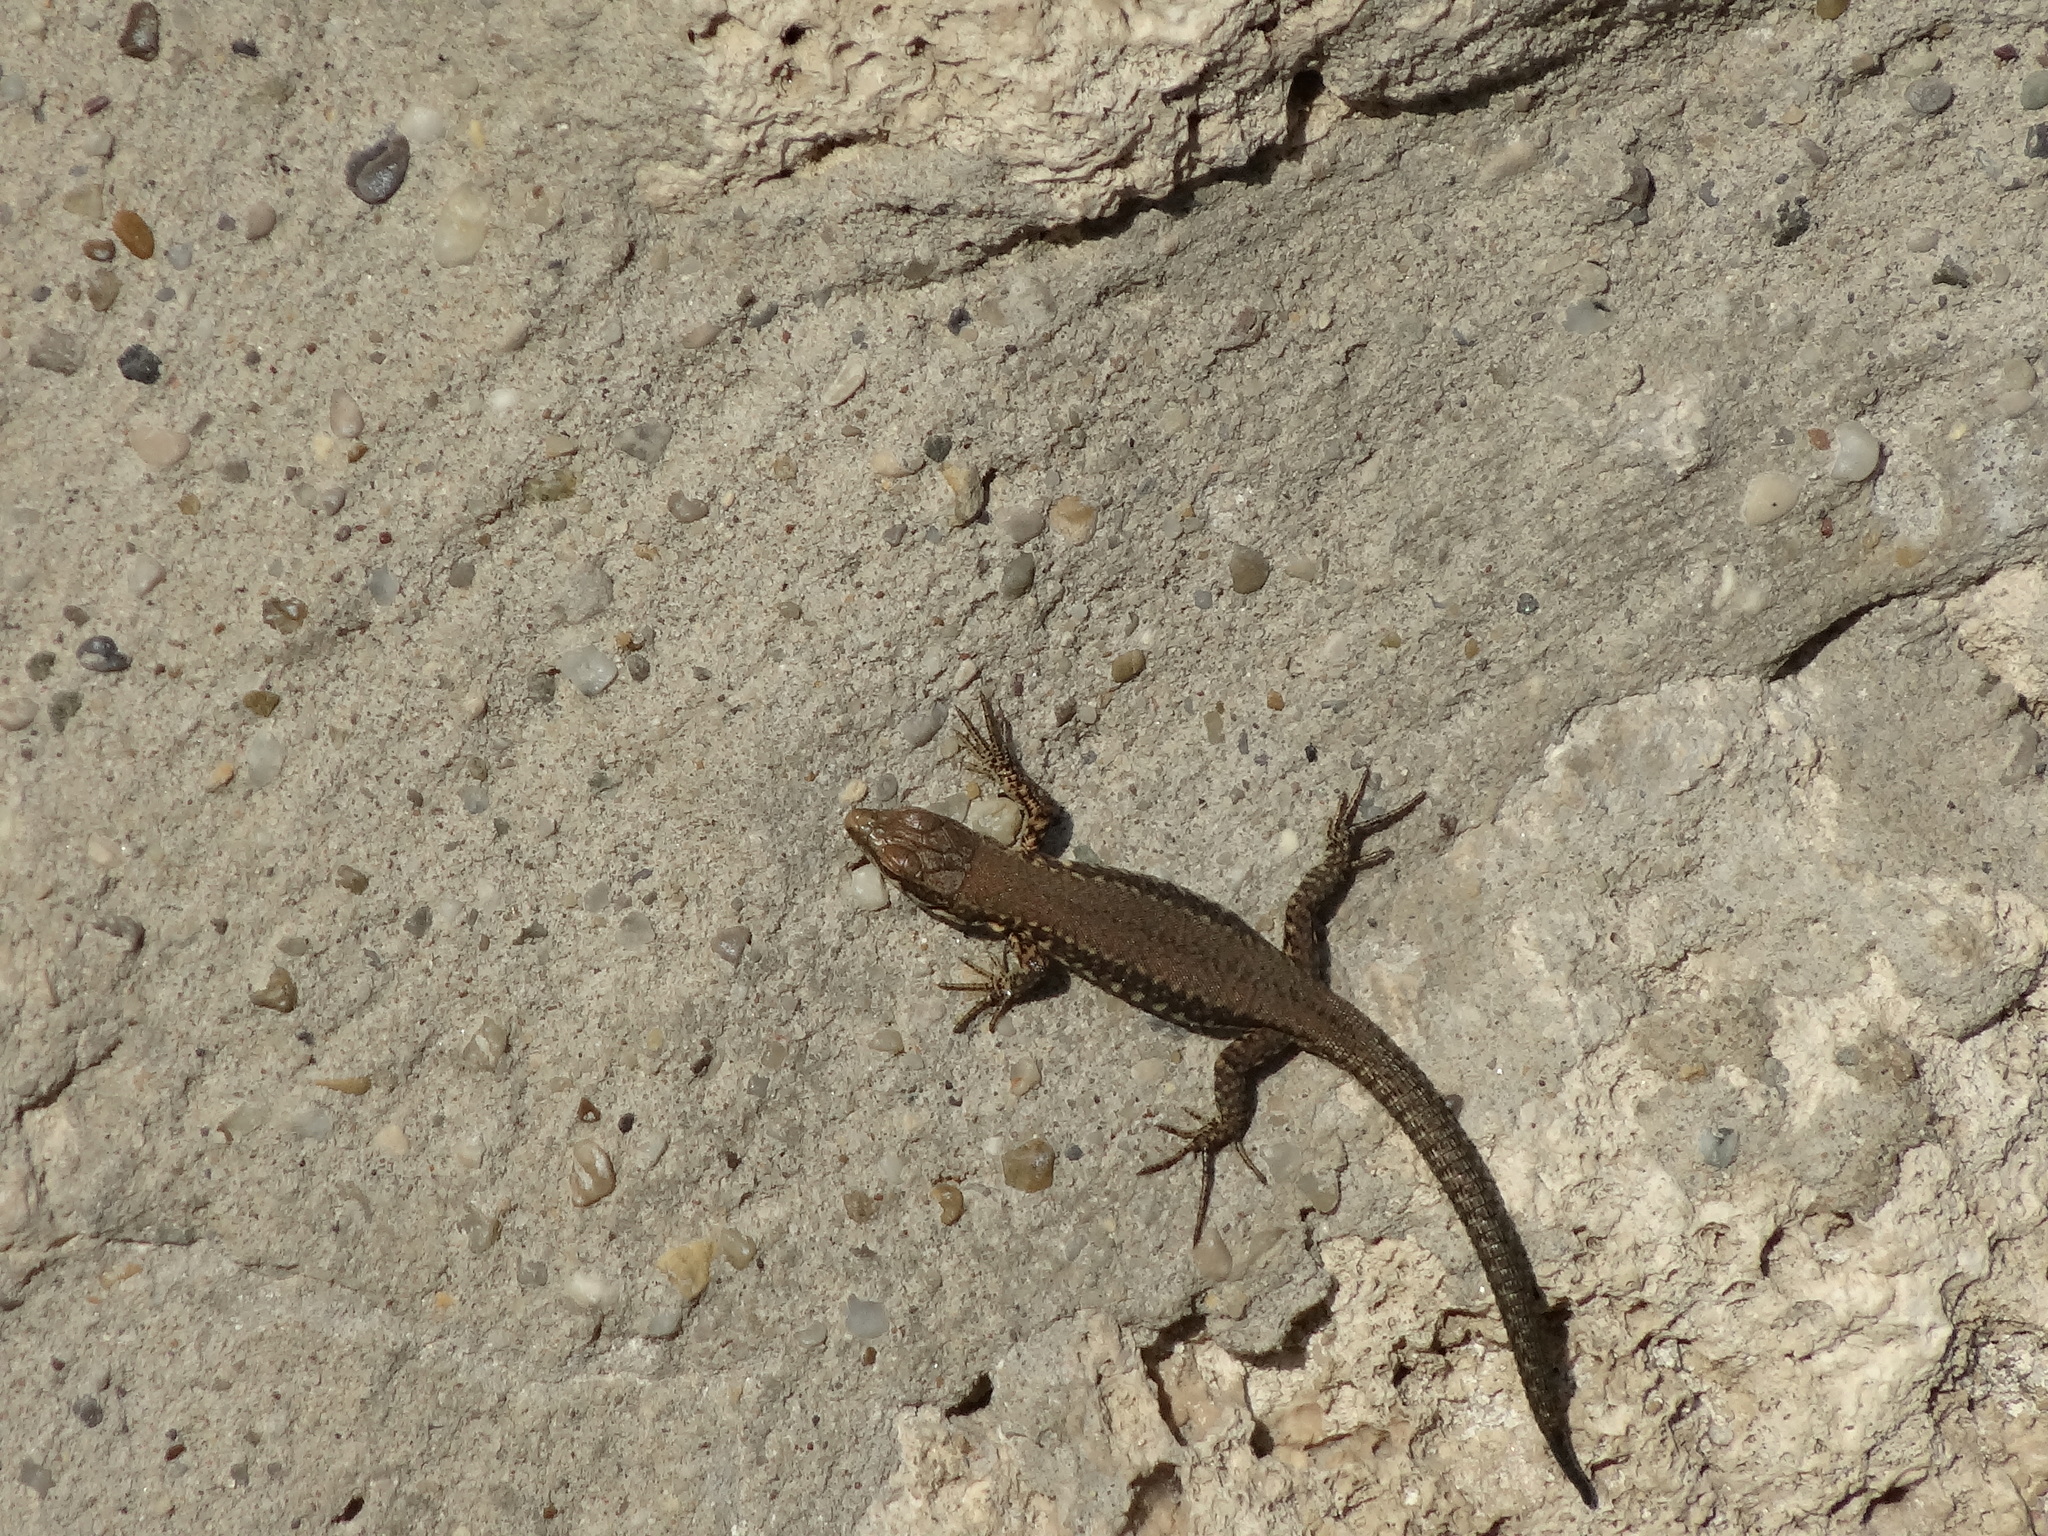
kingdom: Animalia
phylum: Chordata
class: Squamata
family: Lacertidae
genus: Podarcis
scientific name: Podarcis muralis
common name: Common wall lizard
